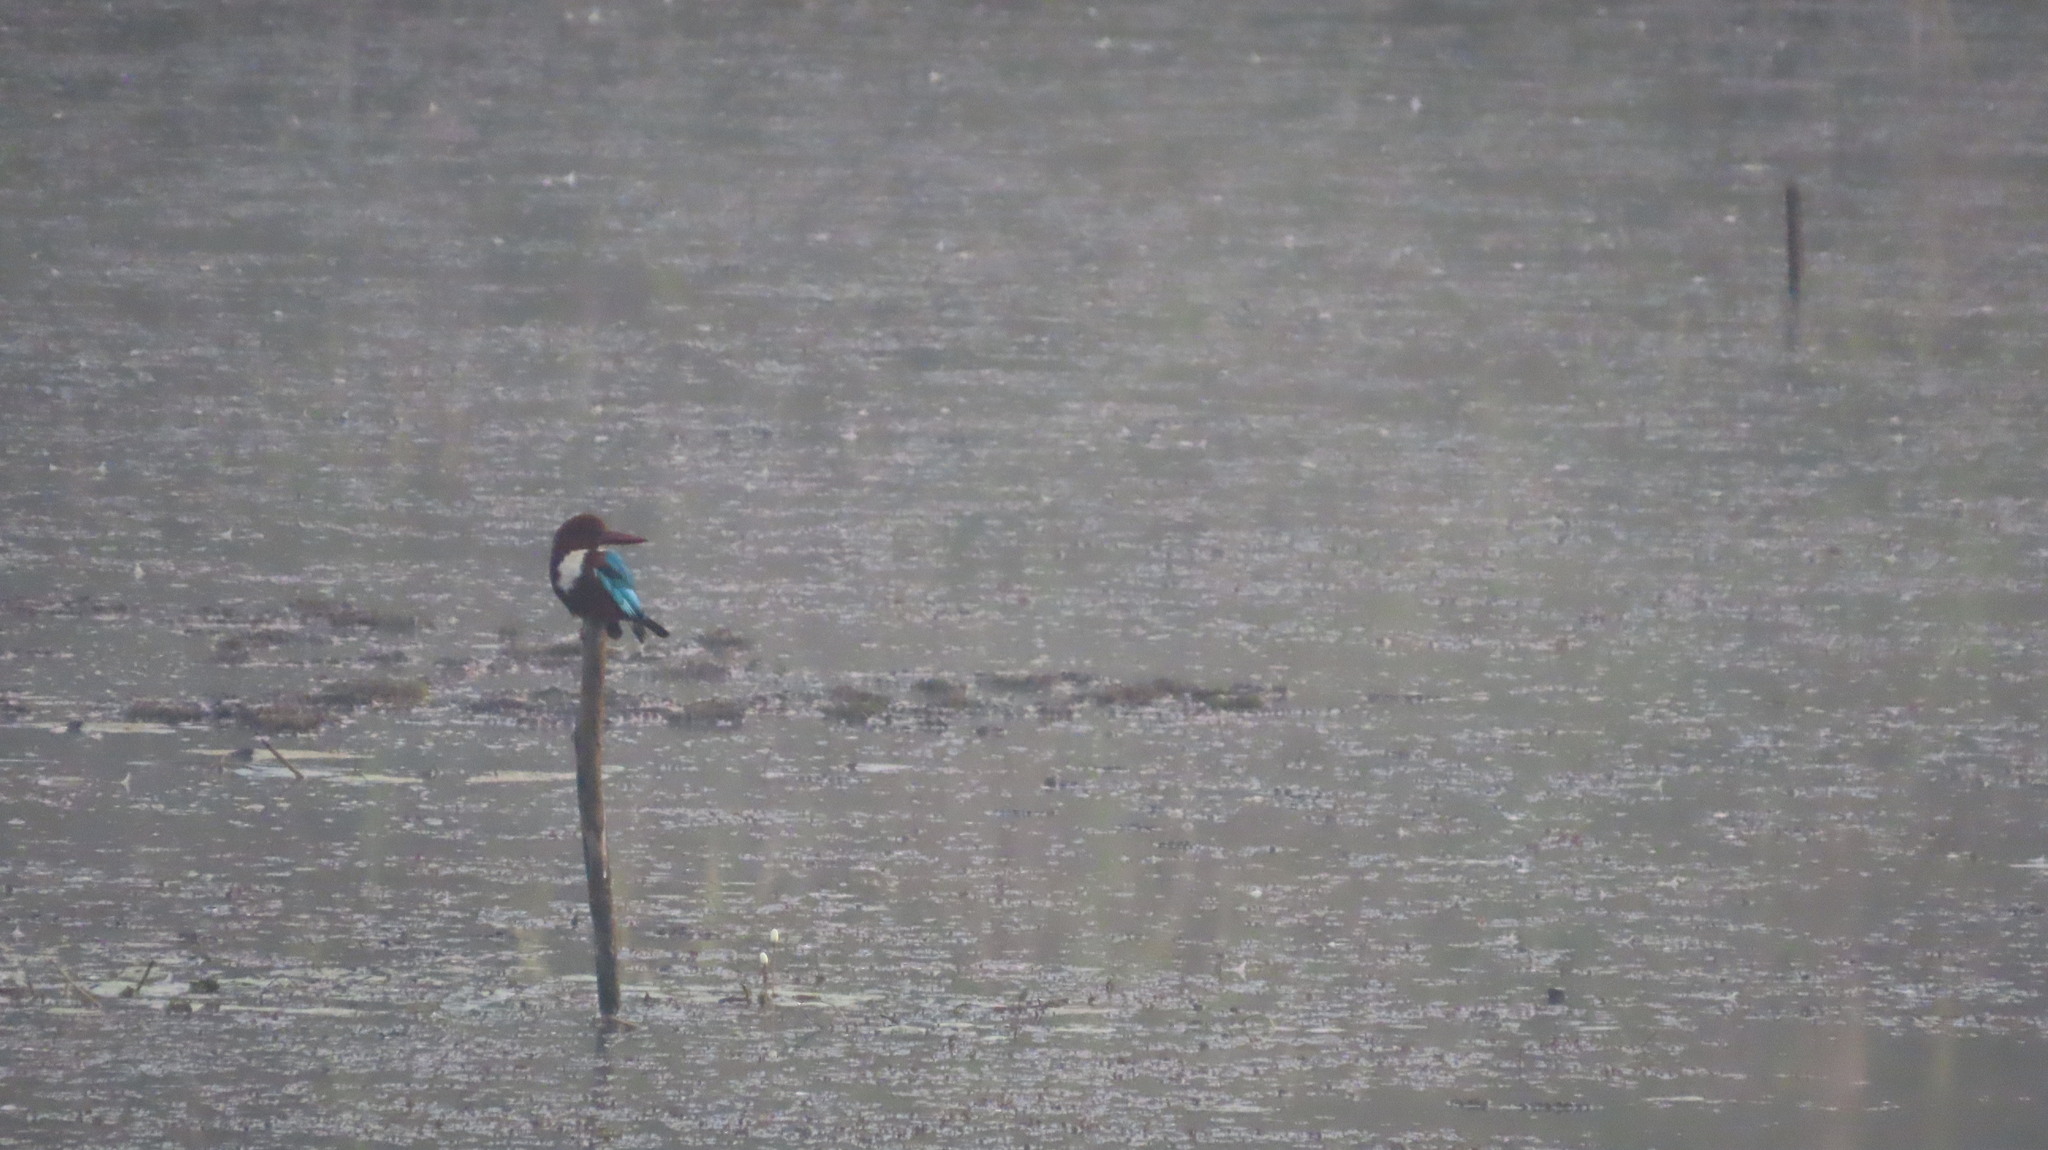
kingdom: Animalia
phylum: Chordata
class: Aves
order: Coraciiformes
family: Alcedinidae
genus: Halcyon
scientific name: Halcyon smyrnensis
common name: White-throated kingfisher
